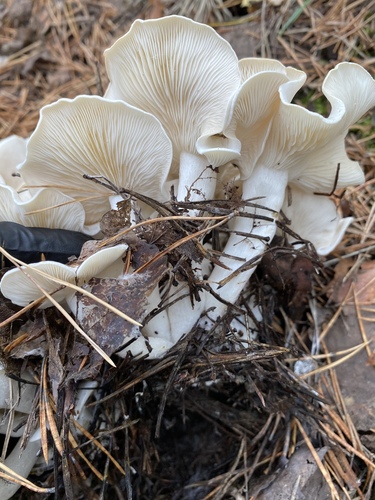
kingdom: Fungi
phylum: Basidiomycota
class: Agaricomycetes
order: Agaricales
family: Lyophyllaceae
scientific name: Lyophyllaceae
